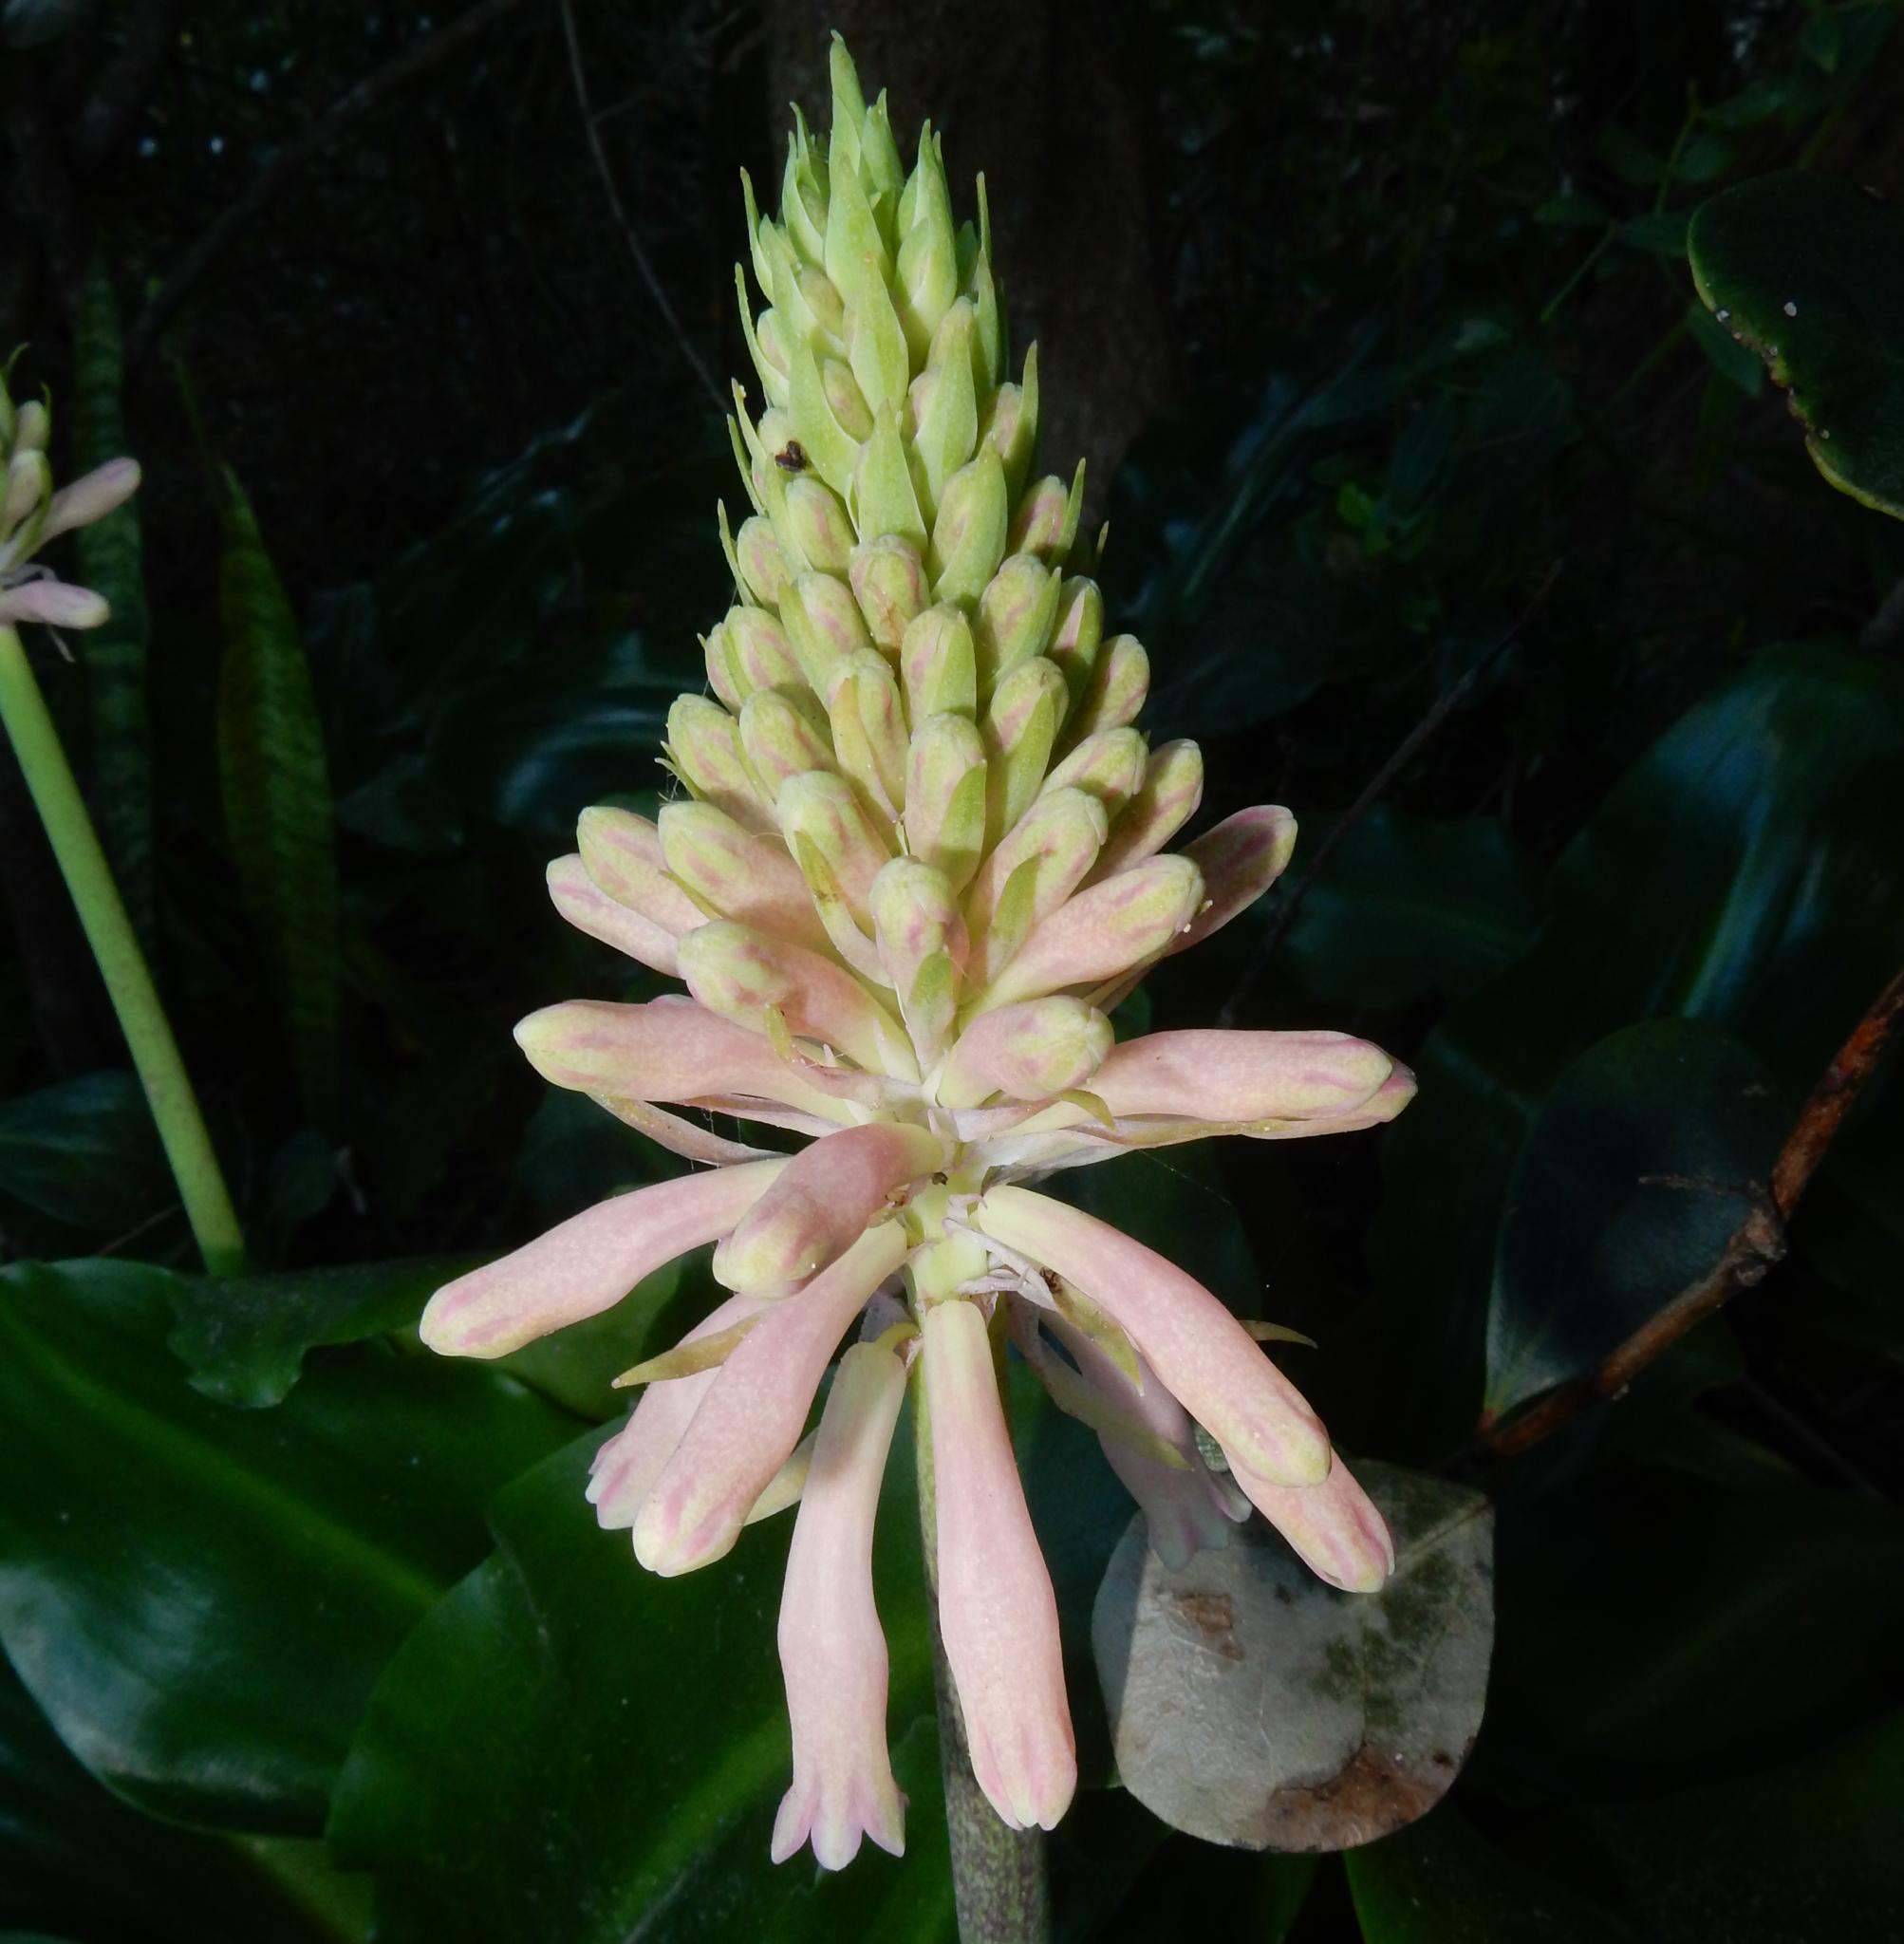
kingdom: Plantae
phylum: Tracheophyta
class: Liliopsida
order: Asparagales
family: Asparagaceae
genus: Veltheimia
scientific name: Veltheimia bracteata
